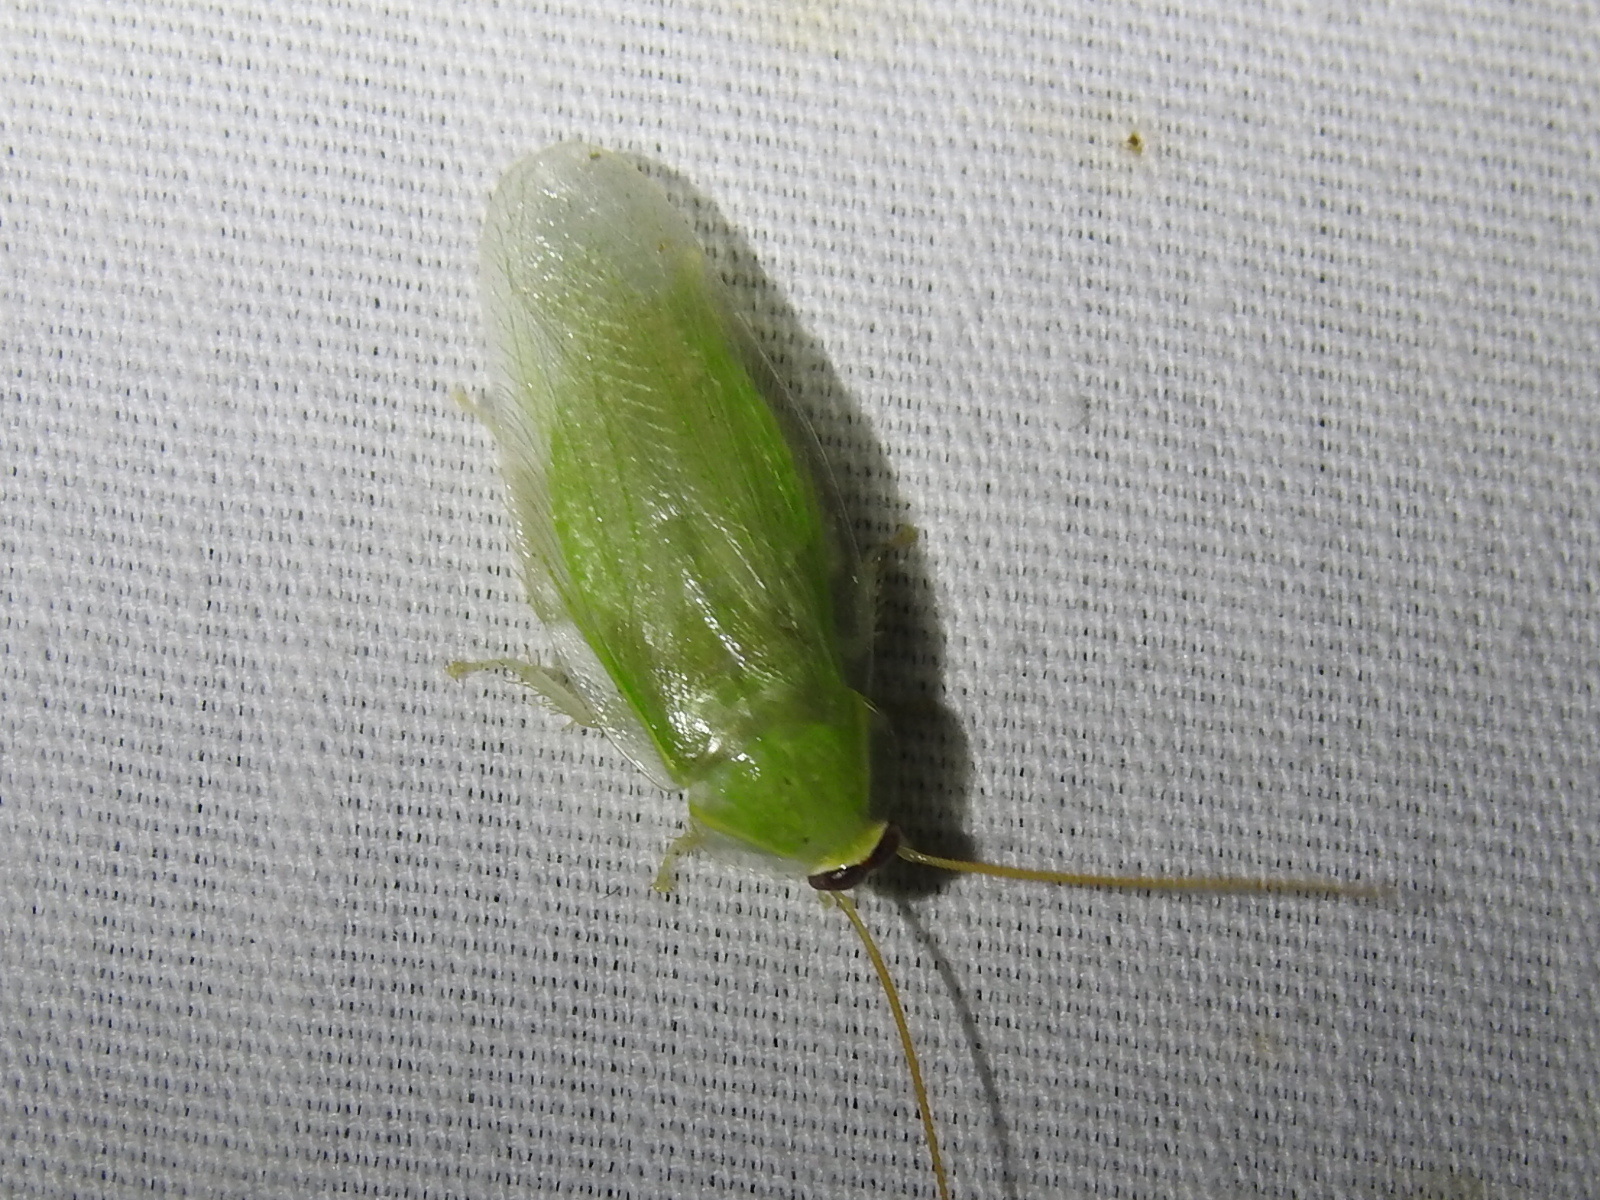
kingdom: Animalia
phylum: Arthropoda
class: Insecta
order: Blattodea
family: Blaberidae
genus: Panchlora
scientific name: Panchlora nivea
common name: Cuban cockroach
